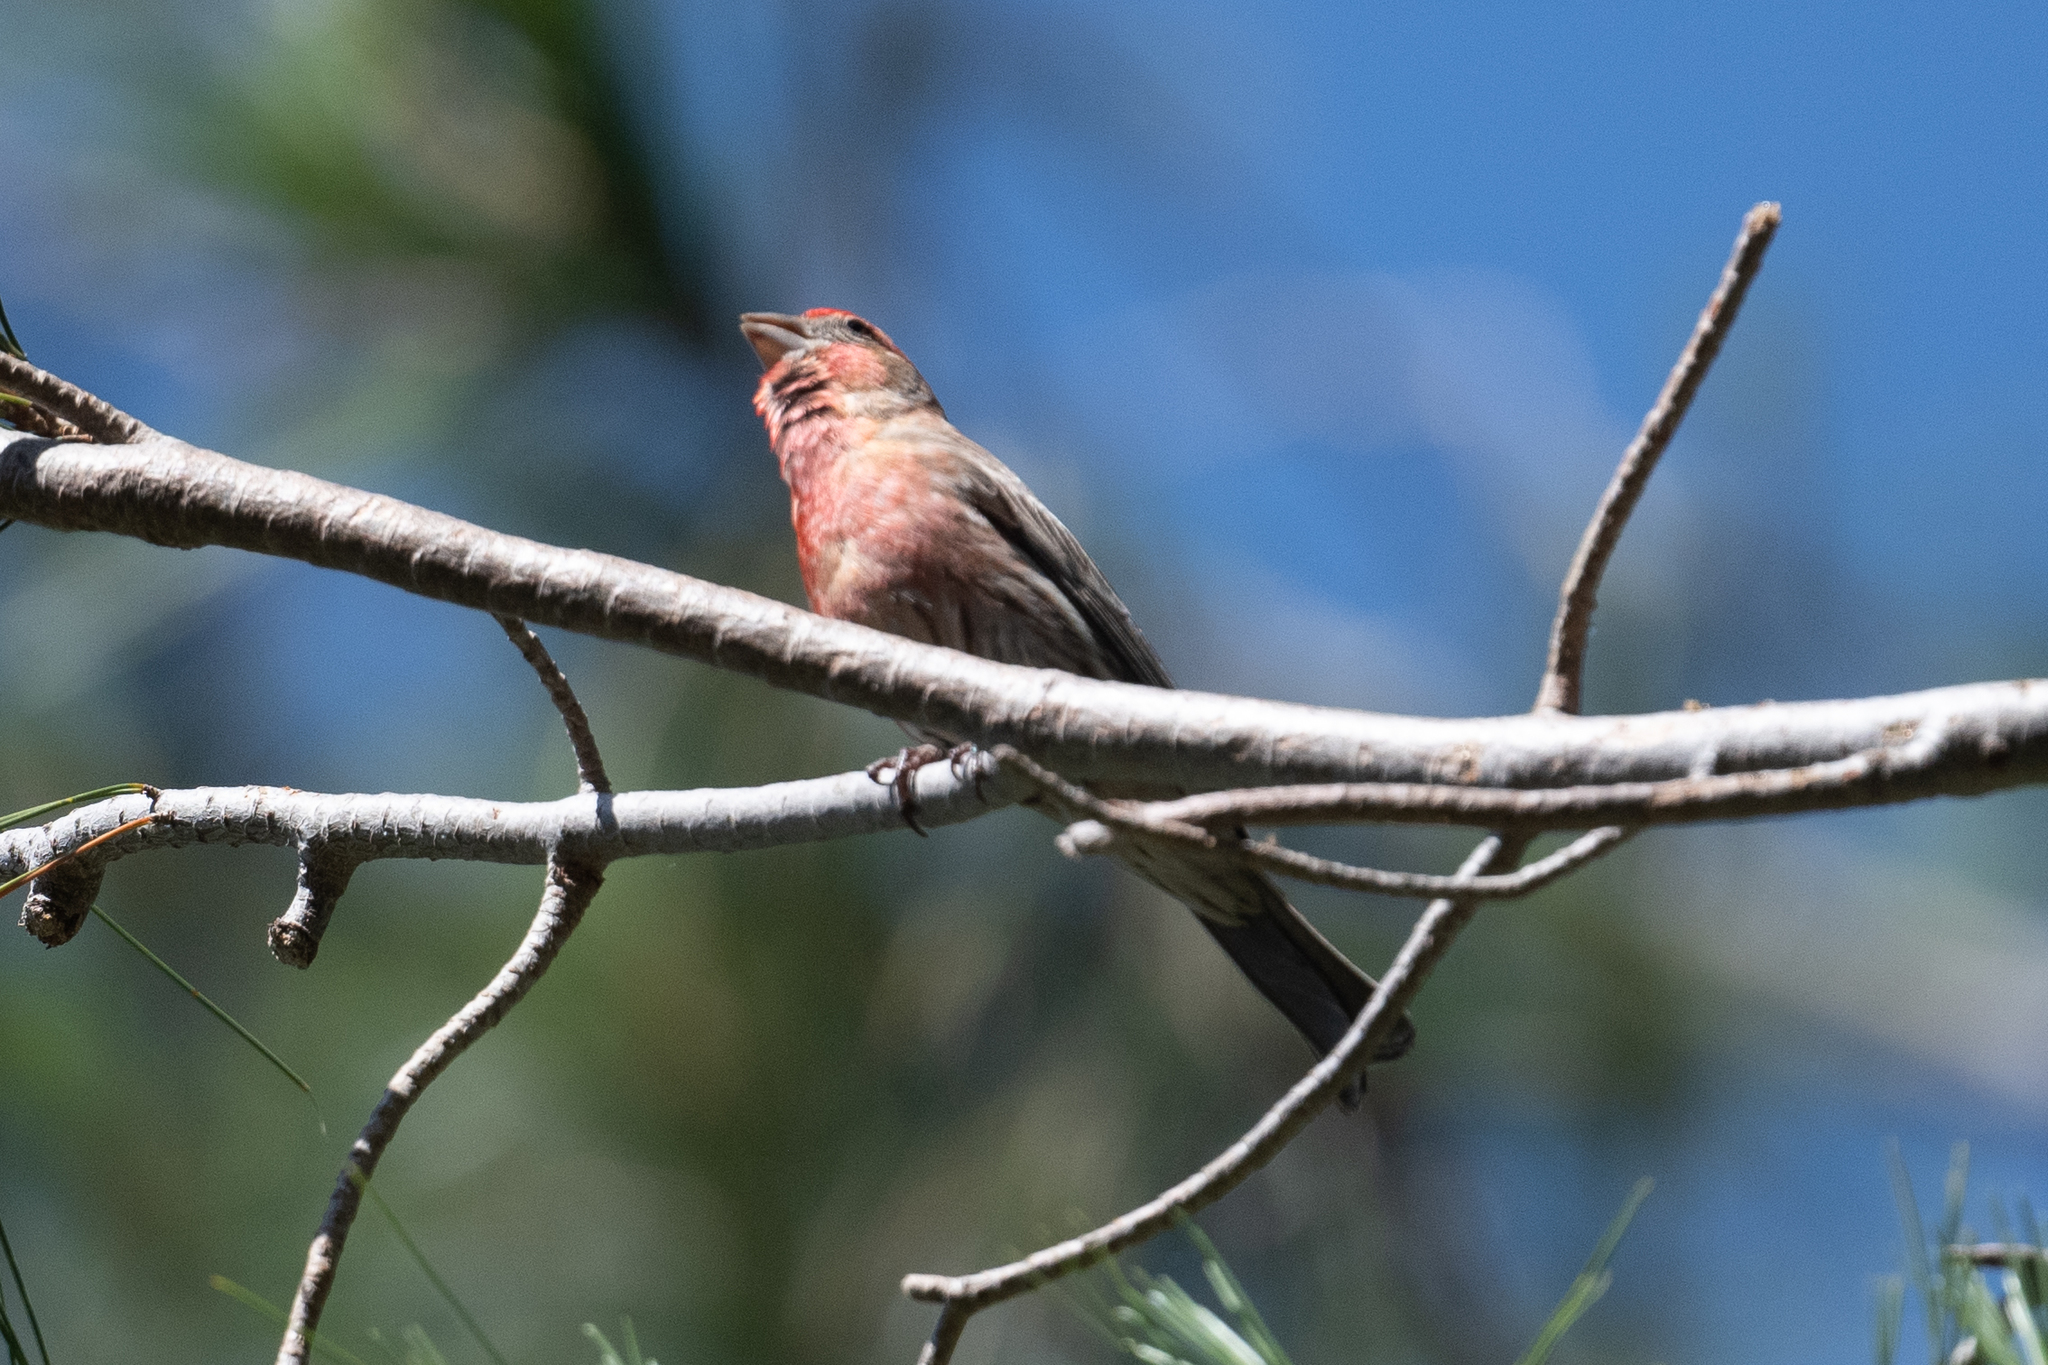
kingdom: Animalia
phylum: Chordata
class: Aves
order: Passeriformes
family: Fringillidae
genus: Haemorhous
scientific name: Haemorhous mexicanus
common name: House finch
